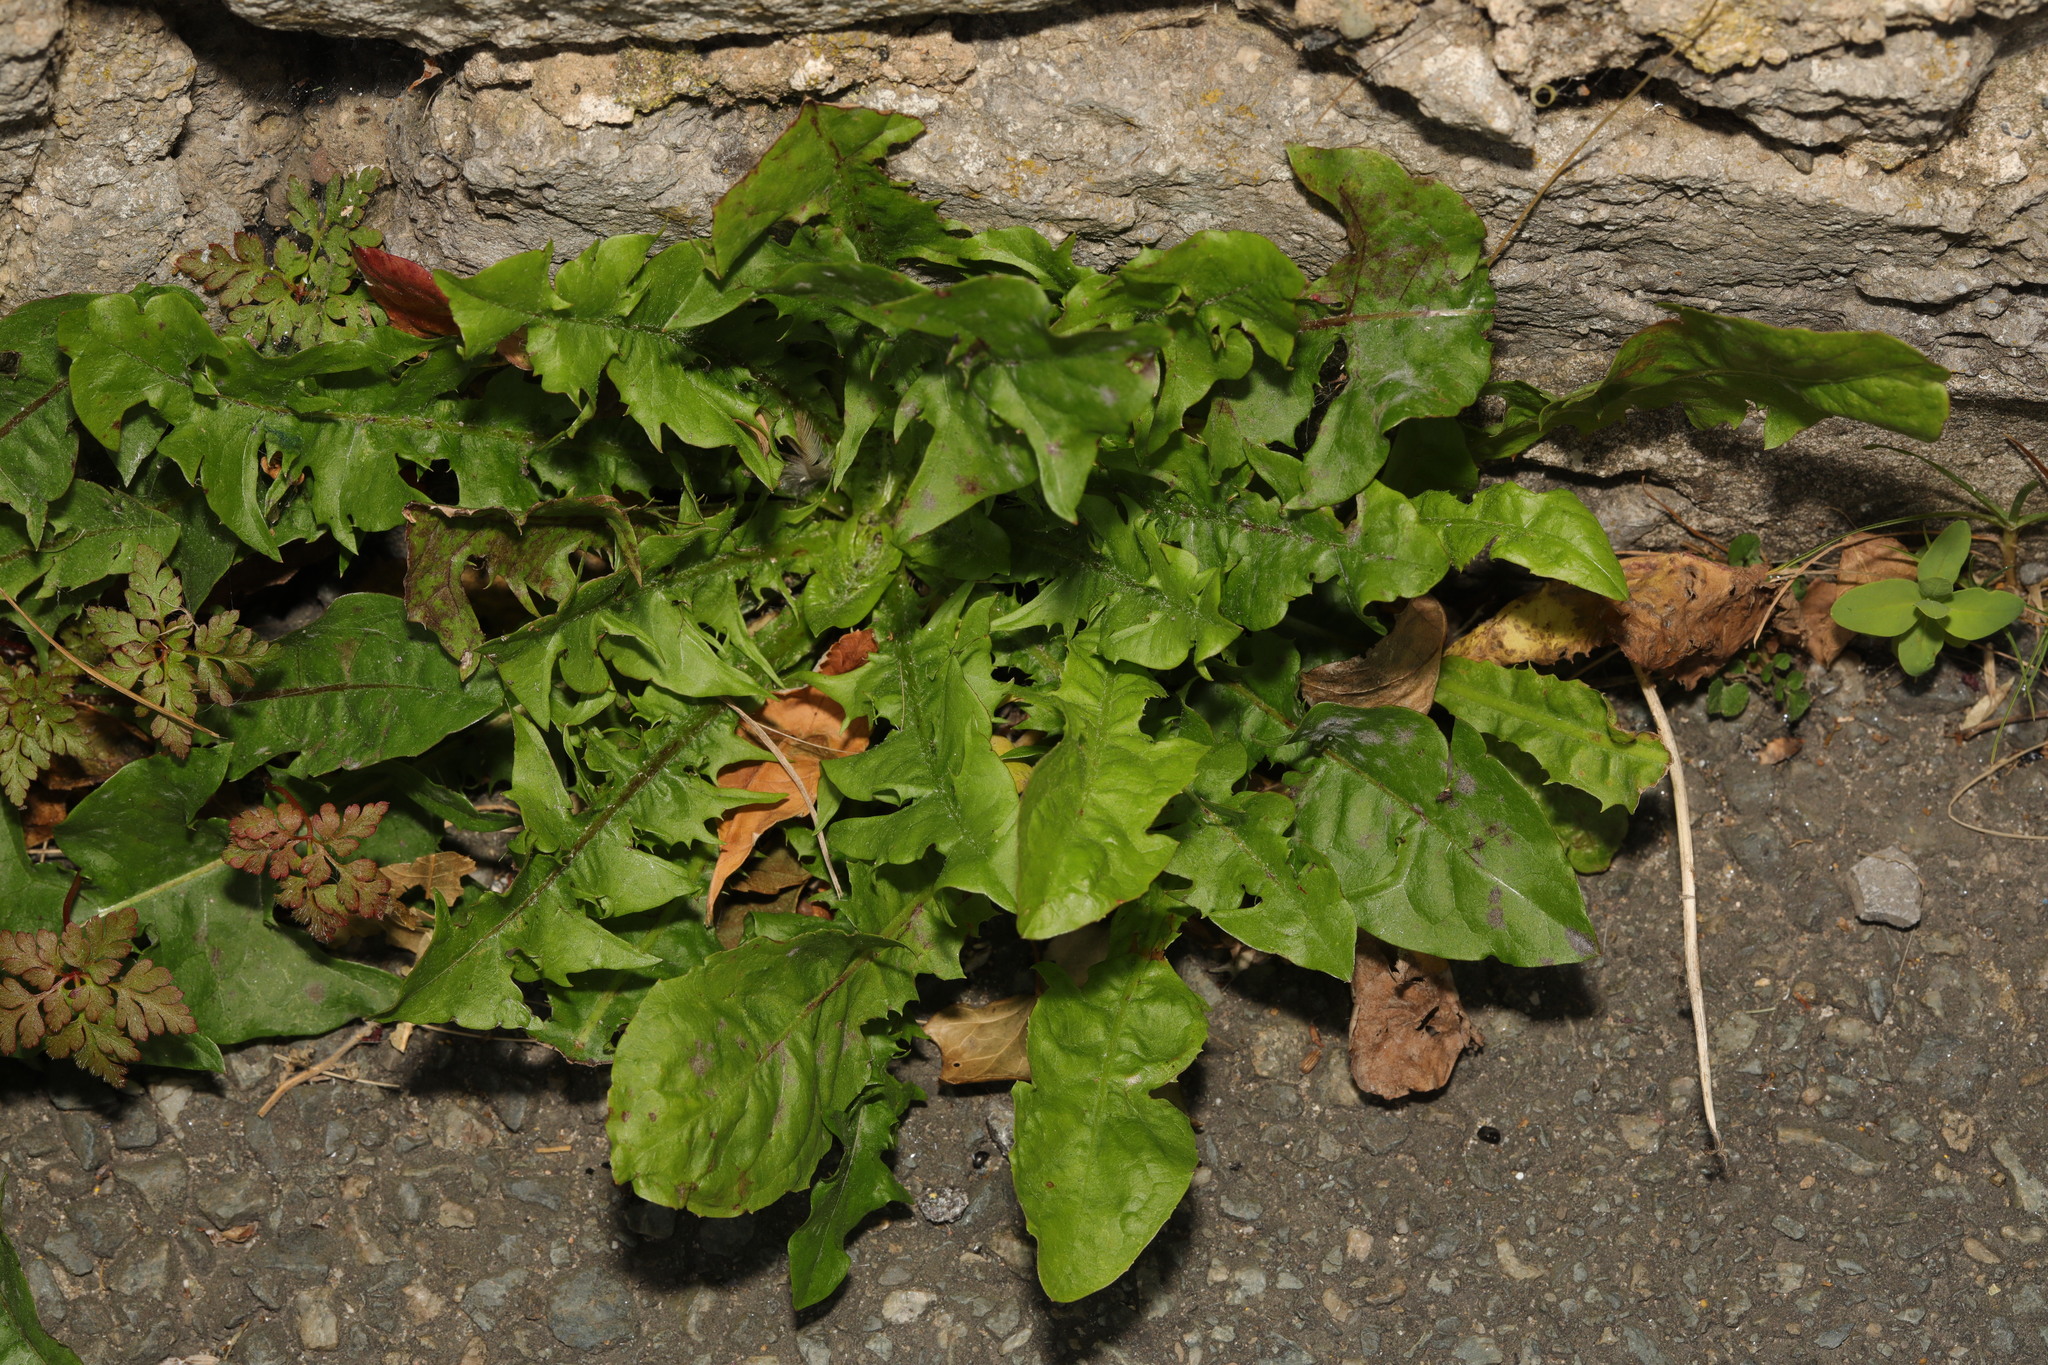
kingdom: Plantae
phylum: Tracheophyta
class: Magnoliopsida
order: Asterales
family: Asteraceae
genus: Taraxacum
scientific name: Taraxacum officinale
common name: Common dandelion
